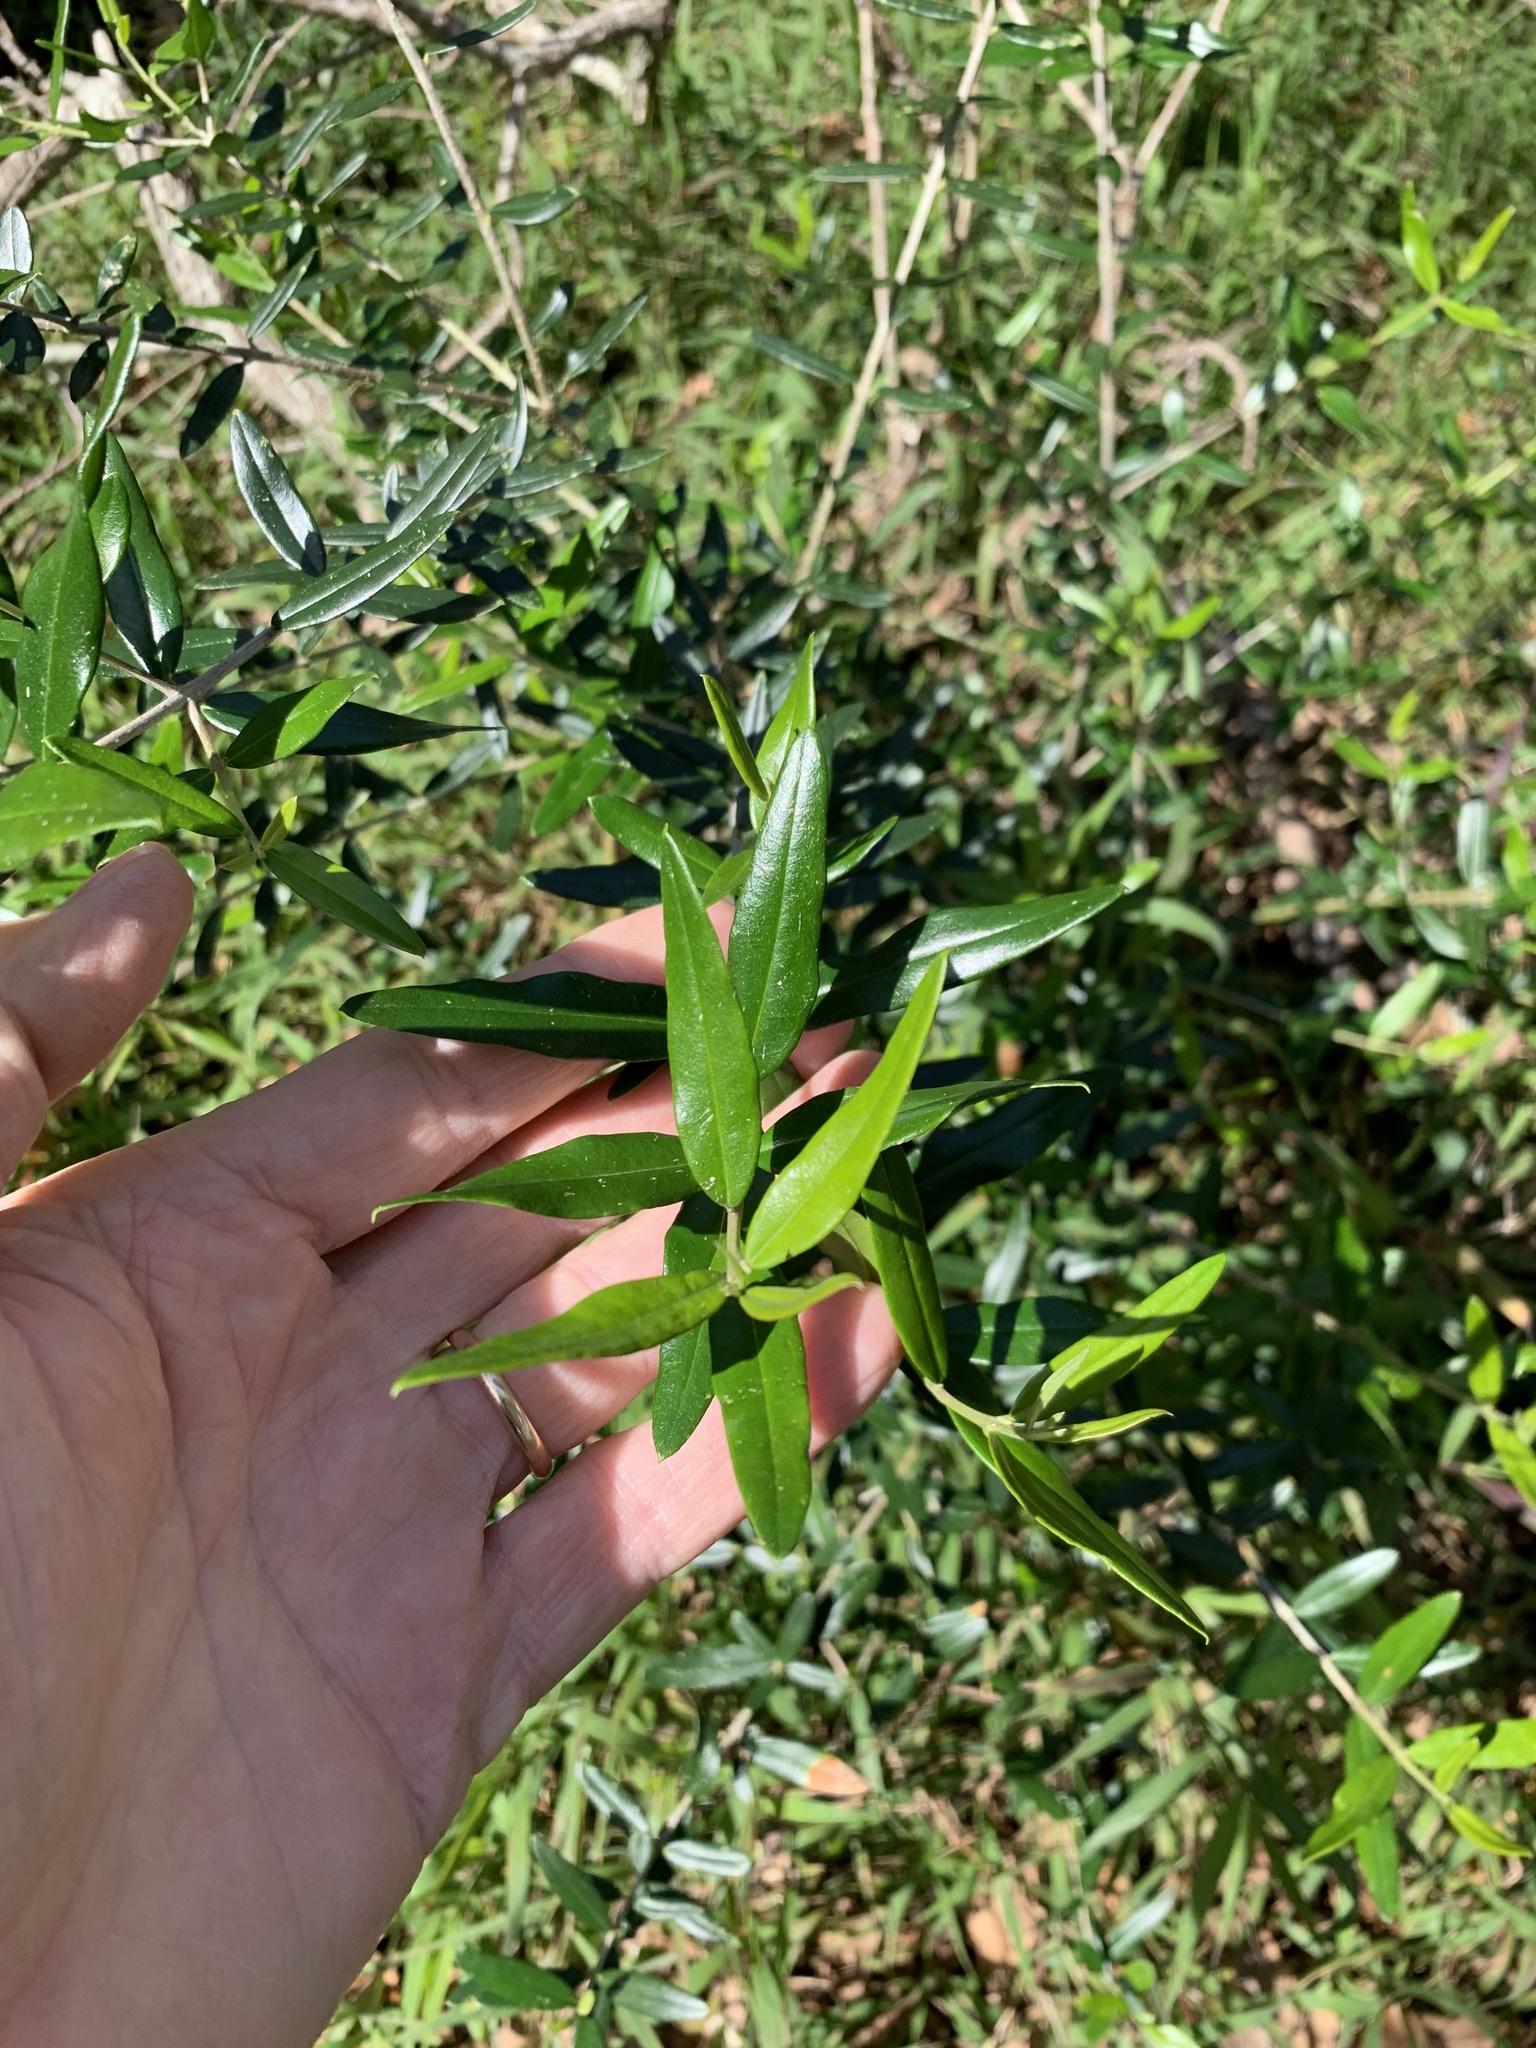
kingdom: Plantae
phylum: Tracheophyta
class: Magnoliopsida
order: Lamiales
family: Oleaceae
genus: Olea
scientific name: Olea europaea
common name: Olive
